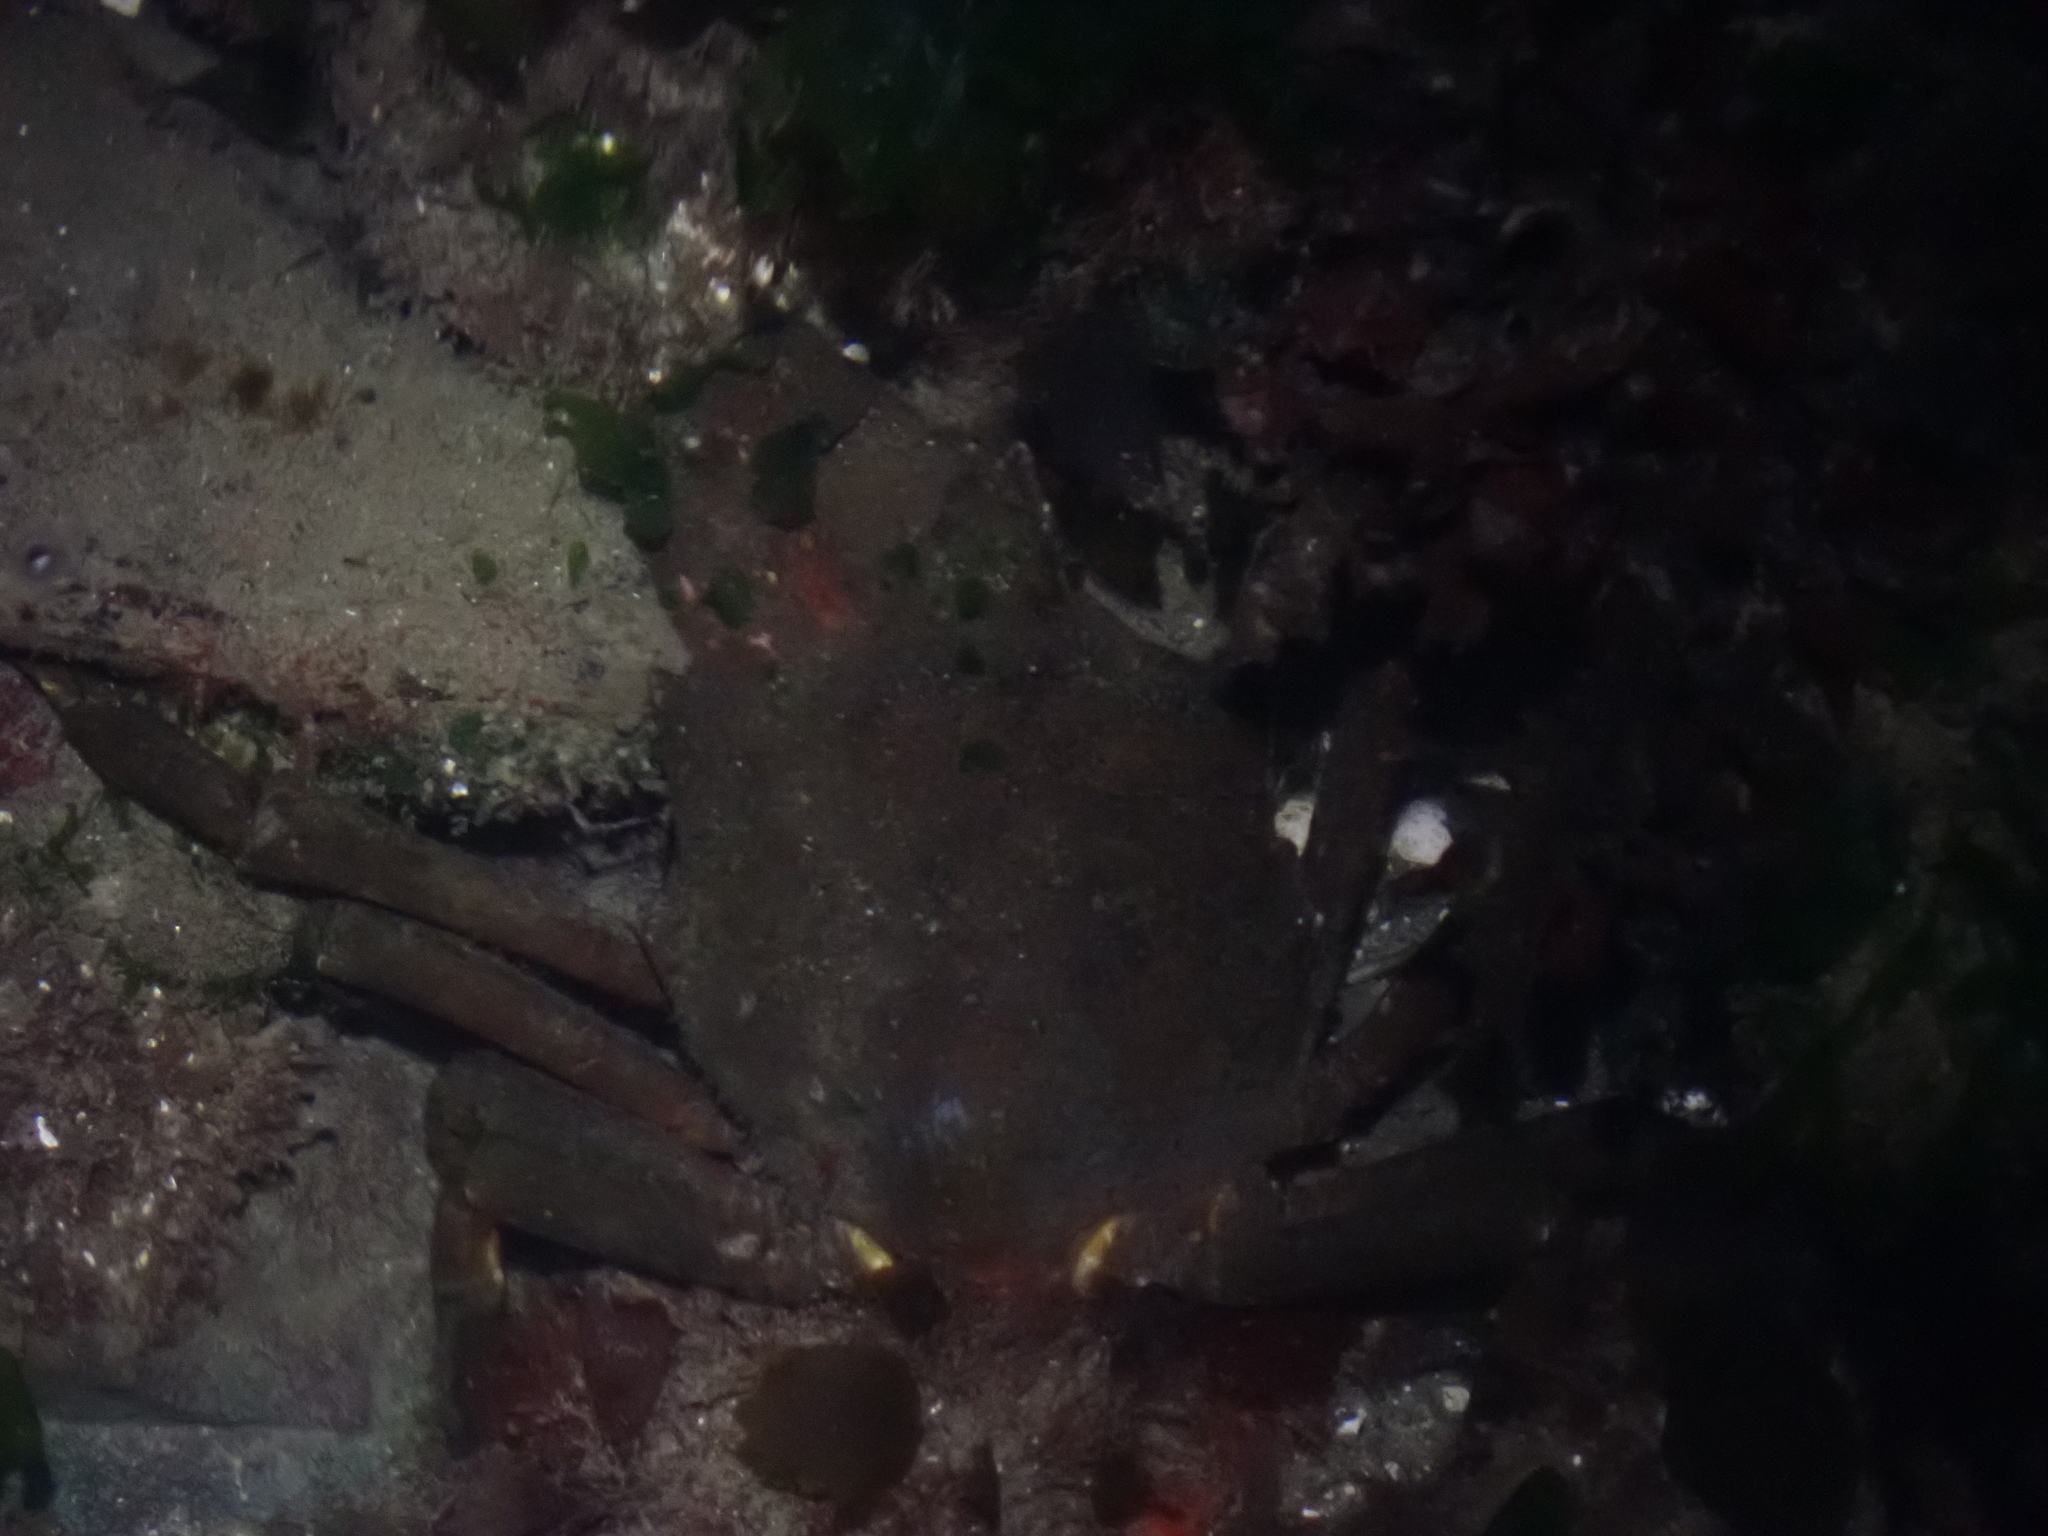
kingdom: Animalia
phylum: Arthropoda
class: Malacostraca
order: Decapoda
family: Epialtidae
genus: Pugettia
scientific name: Pugettia producta
